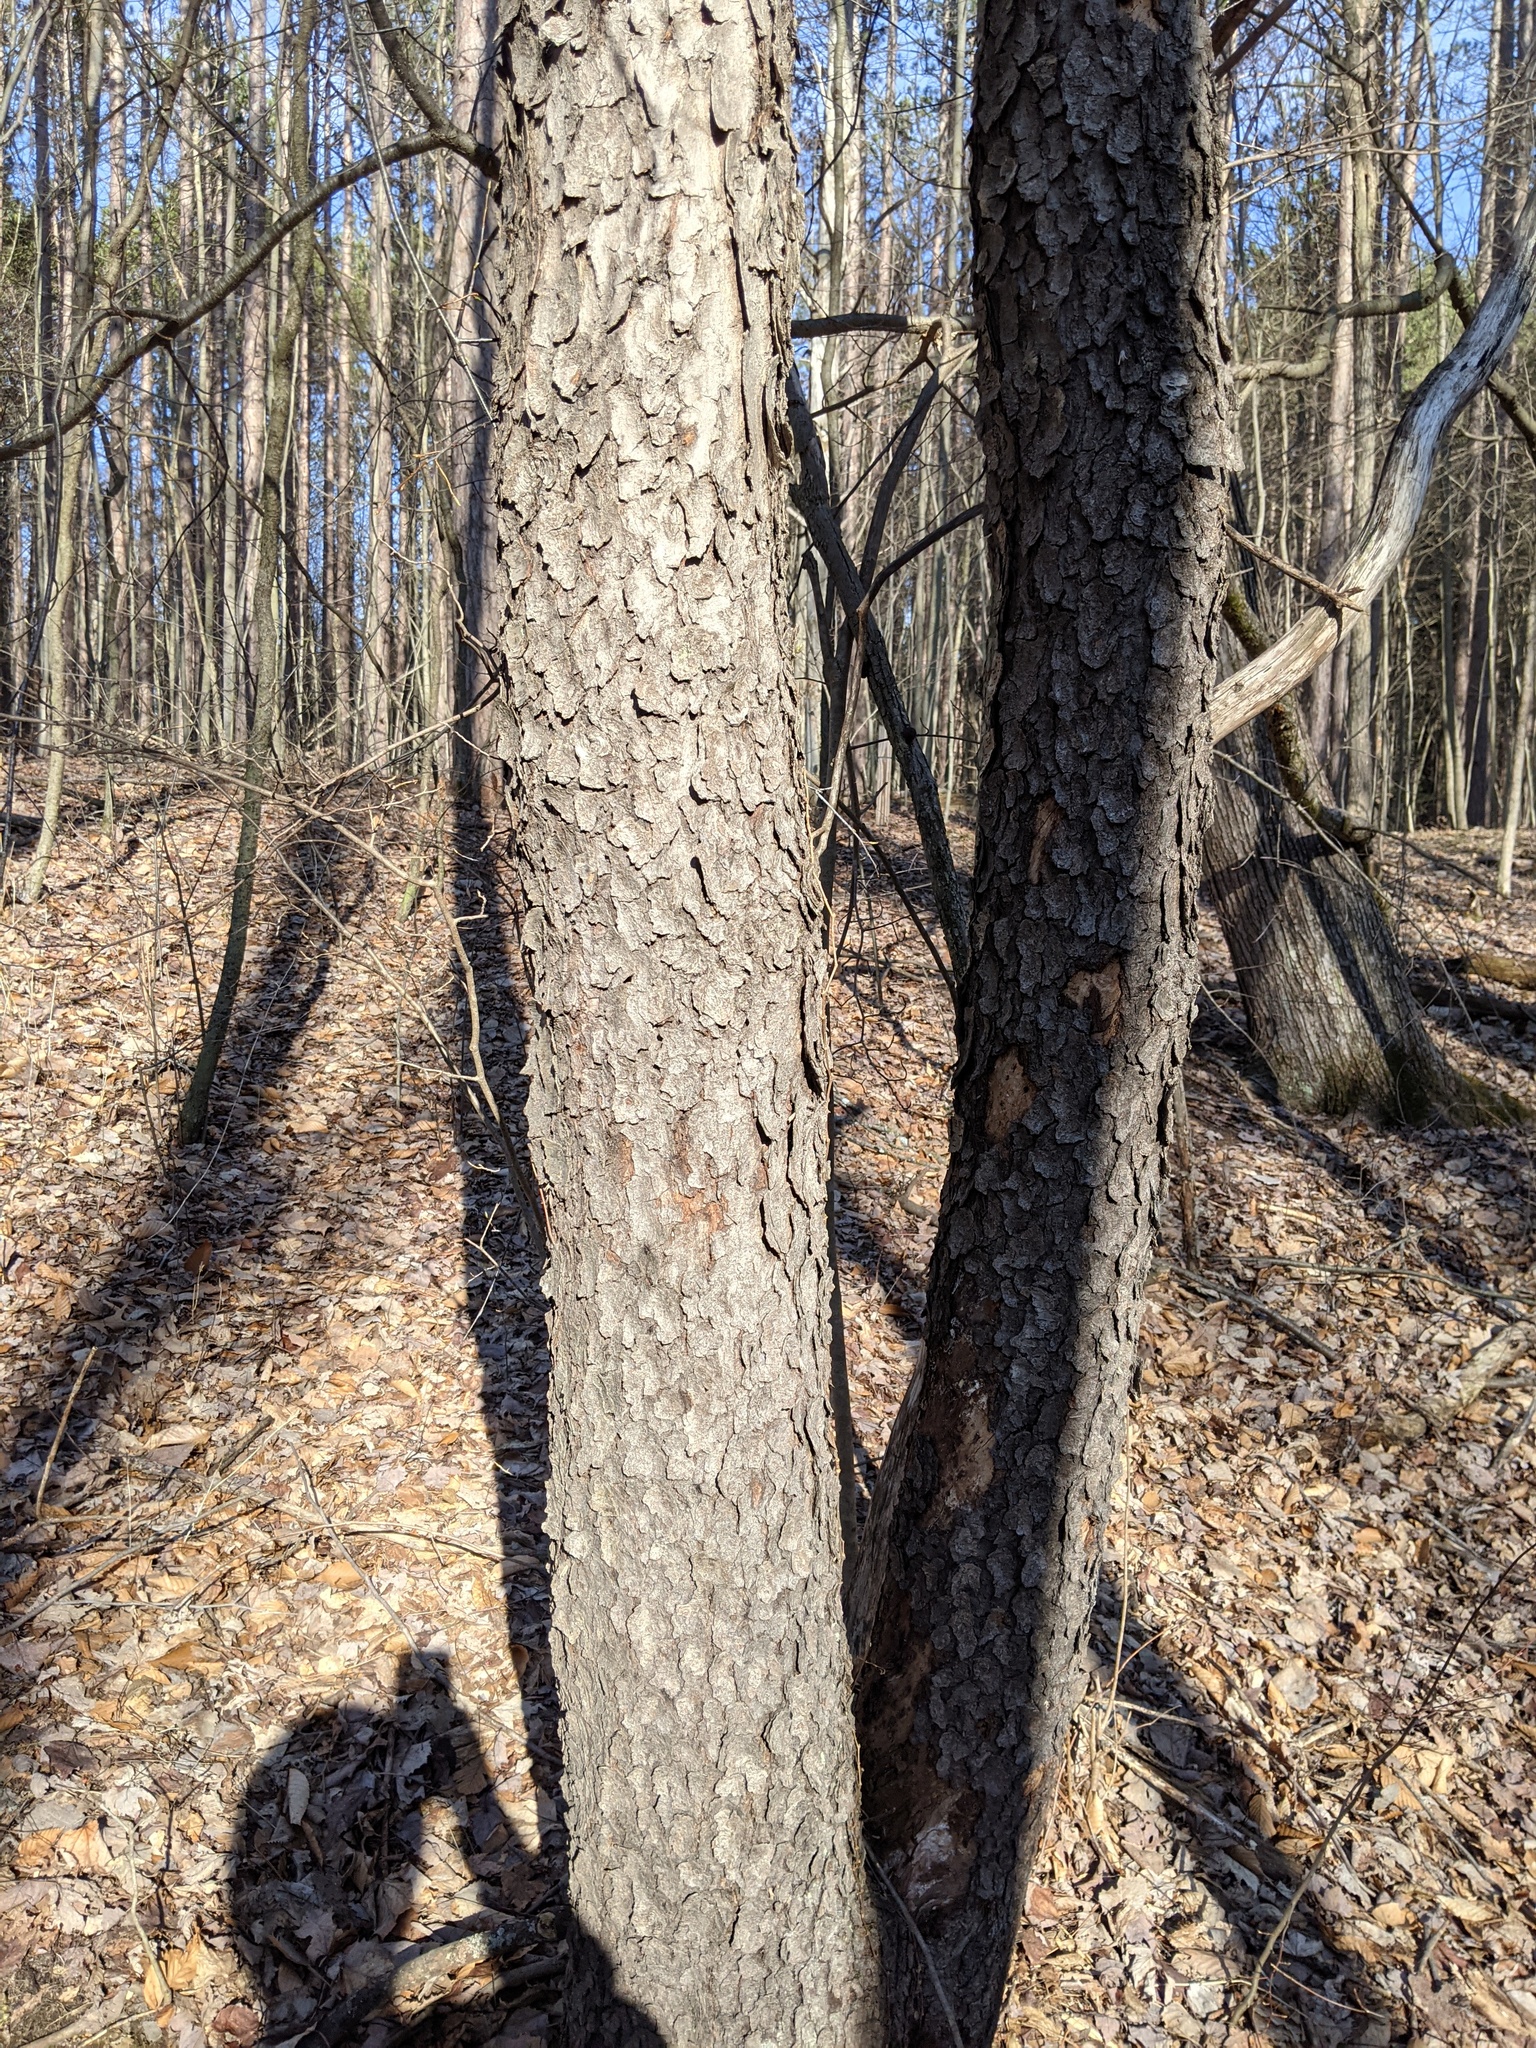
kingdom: Plantae
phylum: Tracheophyta
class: Magnoliopsida
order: Rosales
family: Rosaceae
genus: Prunus
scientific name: Prunus serotina
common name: Black cherry
